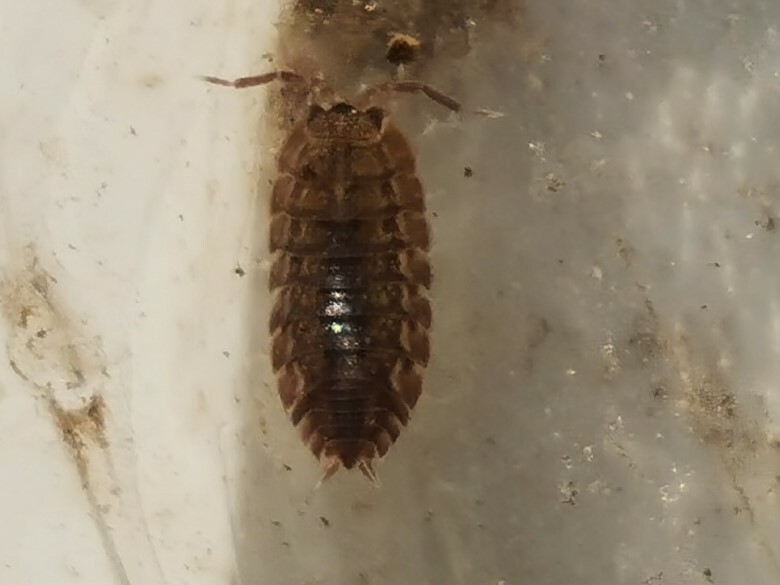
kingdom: Animalia
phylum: Arthropoda
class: Malacostraca
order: Isopoda
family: Porcellionidae
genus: Lucasius
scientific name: Lucasius pallidus
